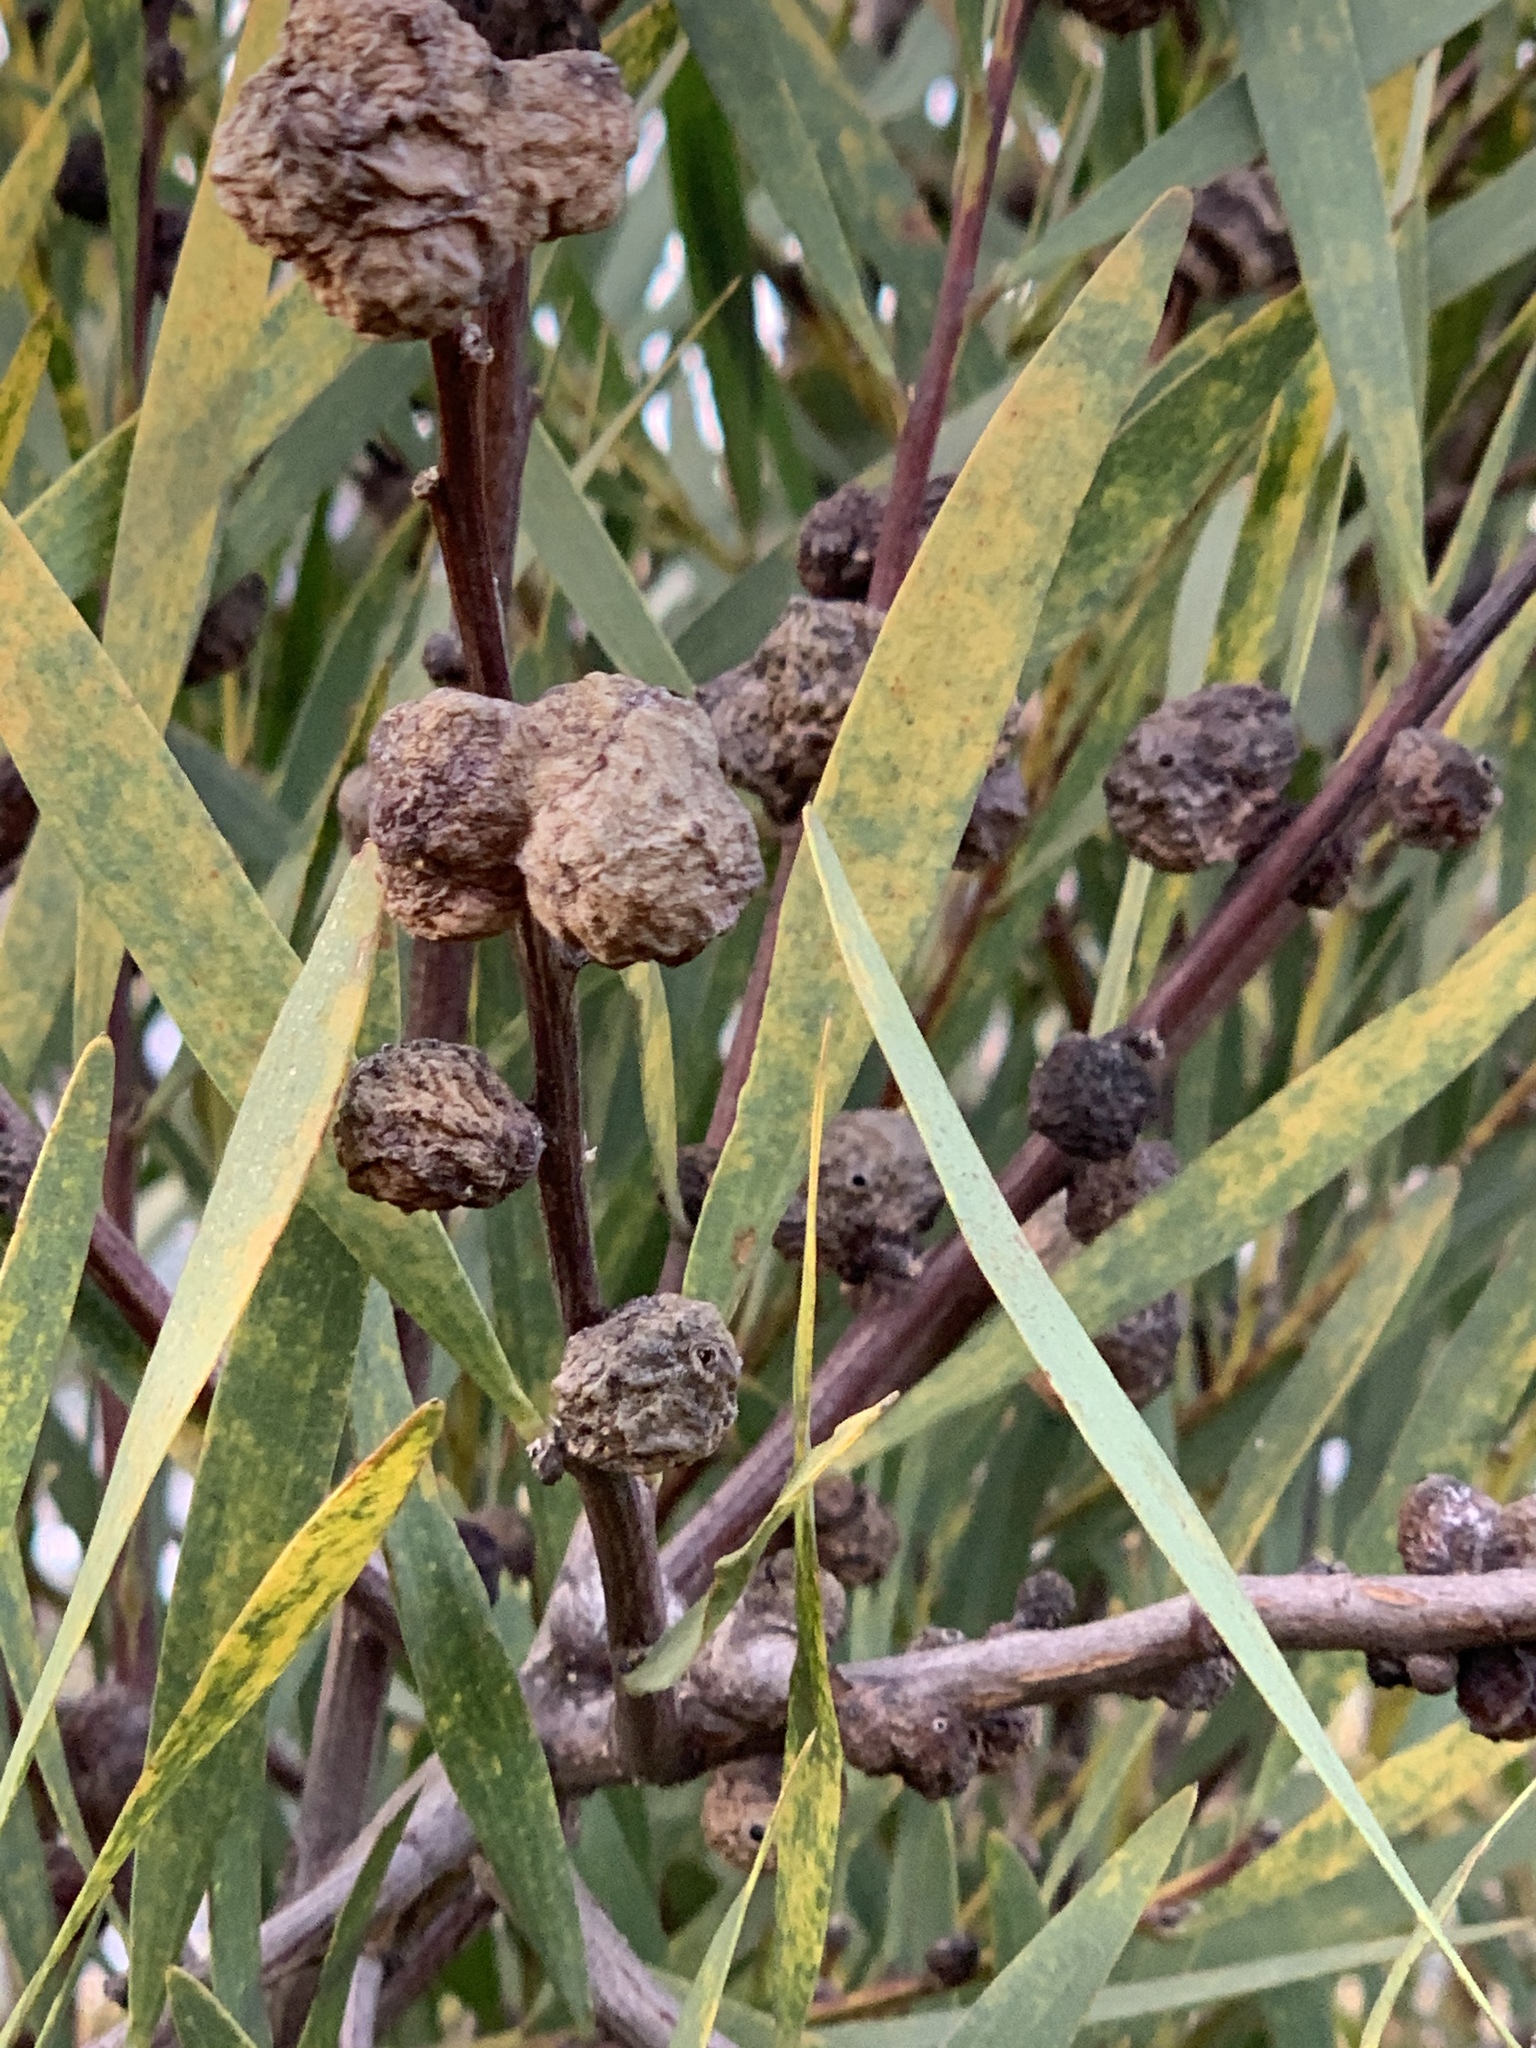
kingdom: Animalia
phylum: Arthropoda
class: Insecta
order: Hymenoptera
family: Pteromalidae
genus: Trichilogaster
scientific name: Trichilogaster acaciaelongifoliae
